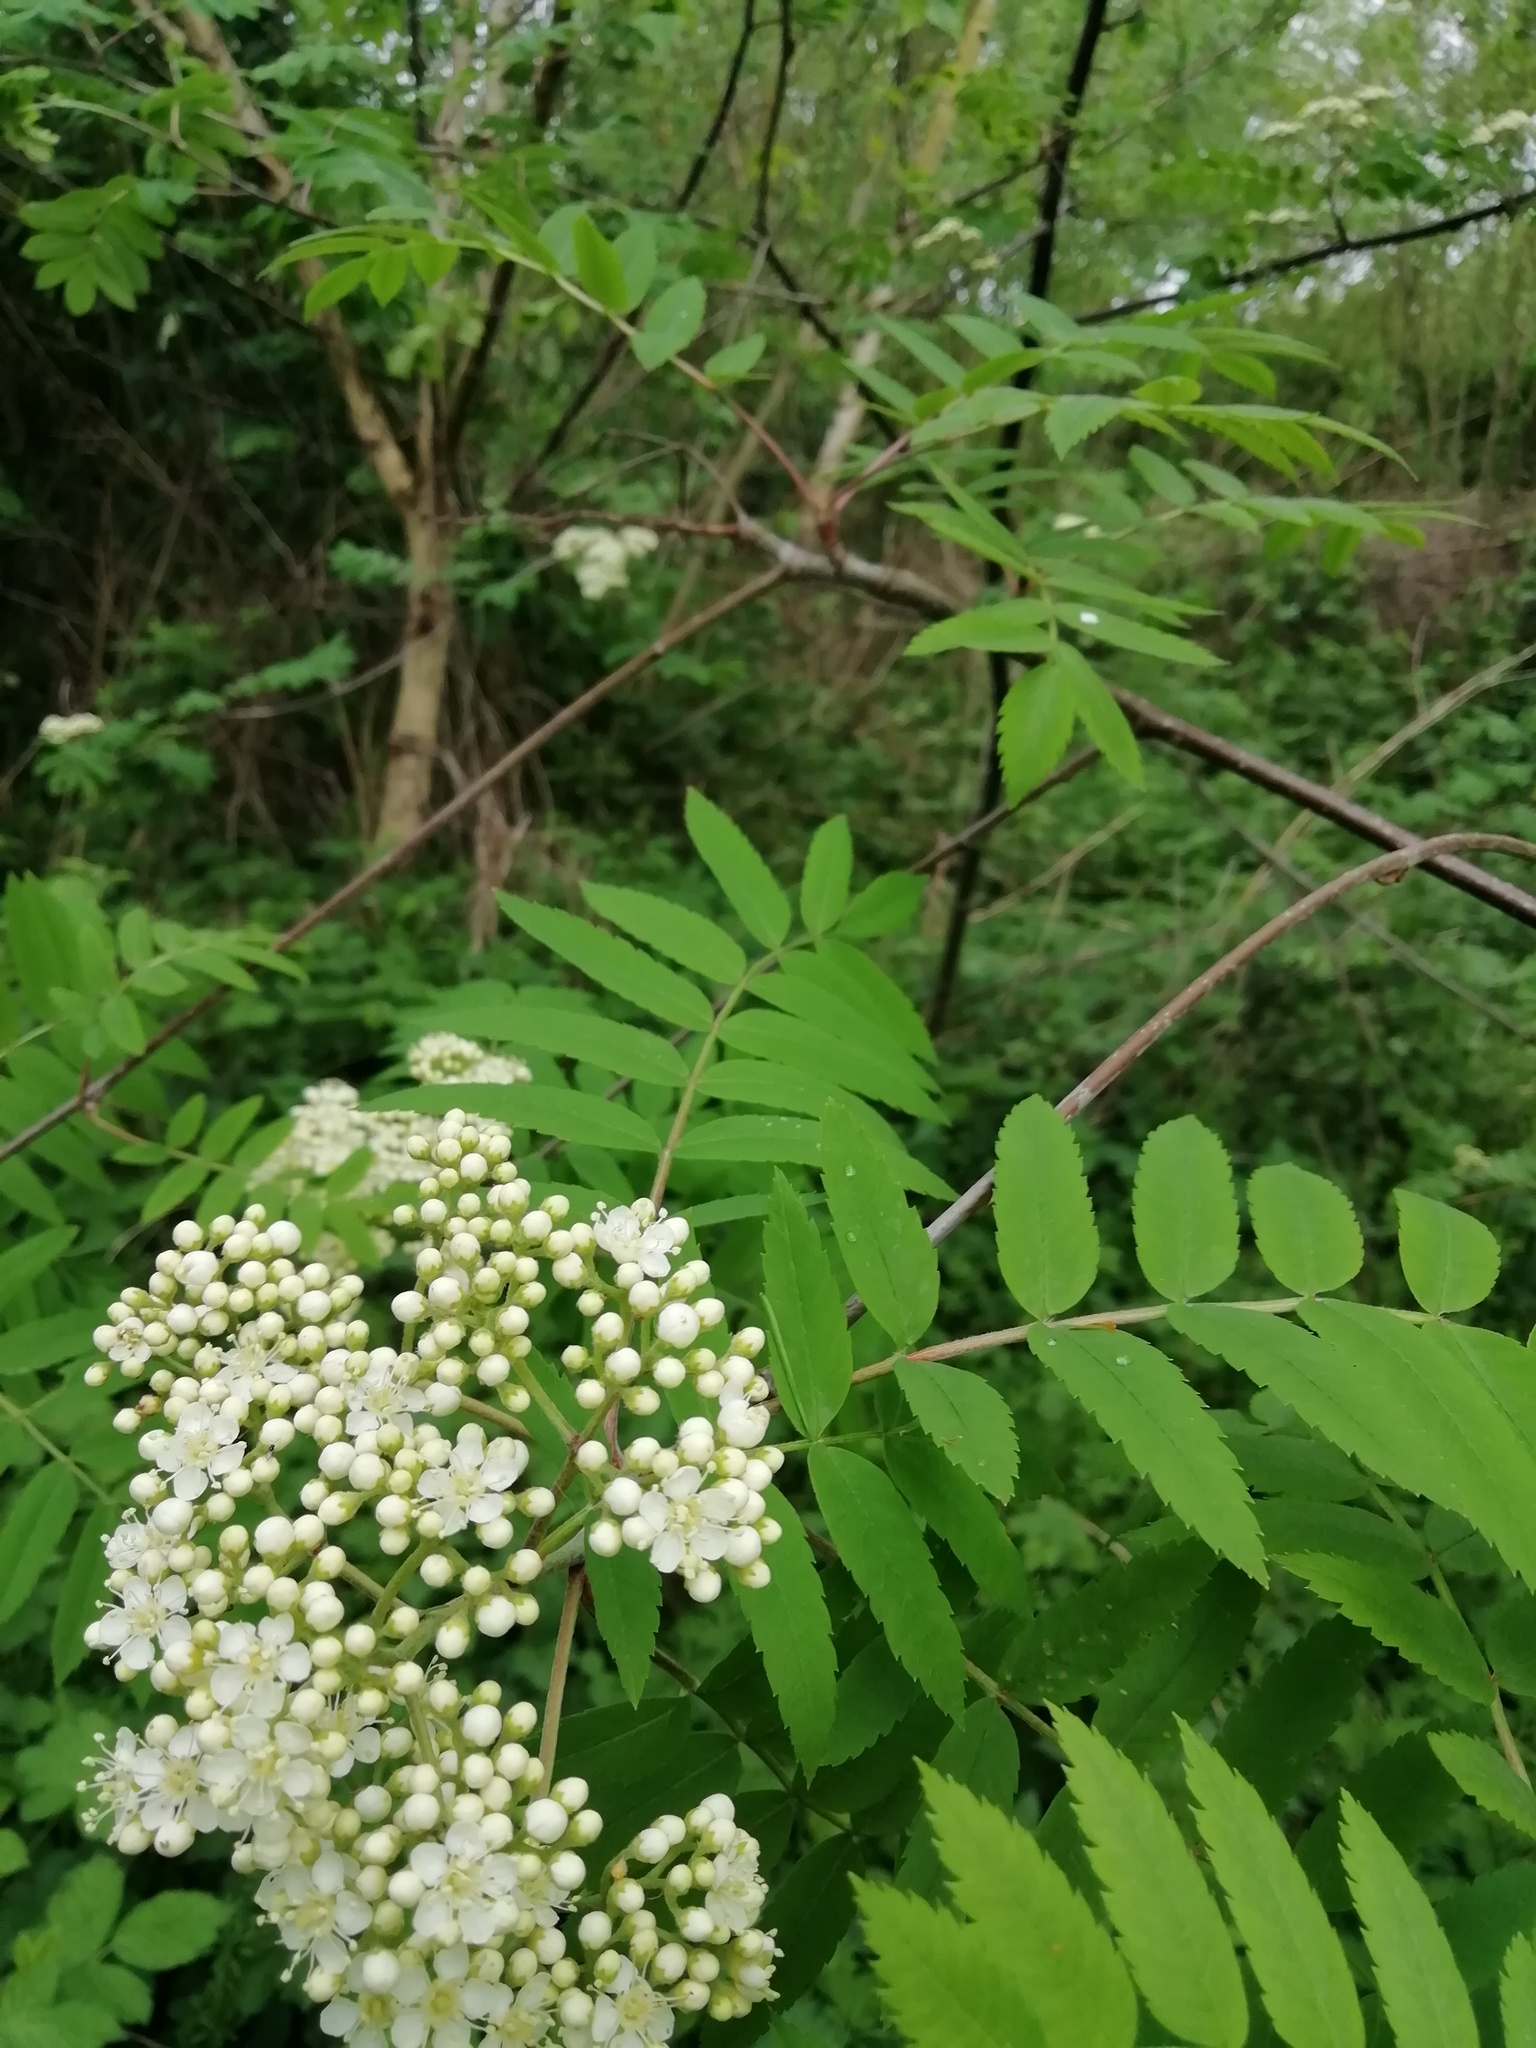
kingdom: Plantae
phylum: Tracheophyta
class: Magnoliopsida
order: Rosales
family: Rosaceae
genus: Sorbus
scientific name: Sorbus aucuparia
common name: Rowan
